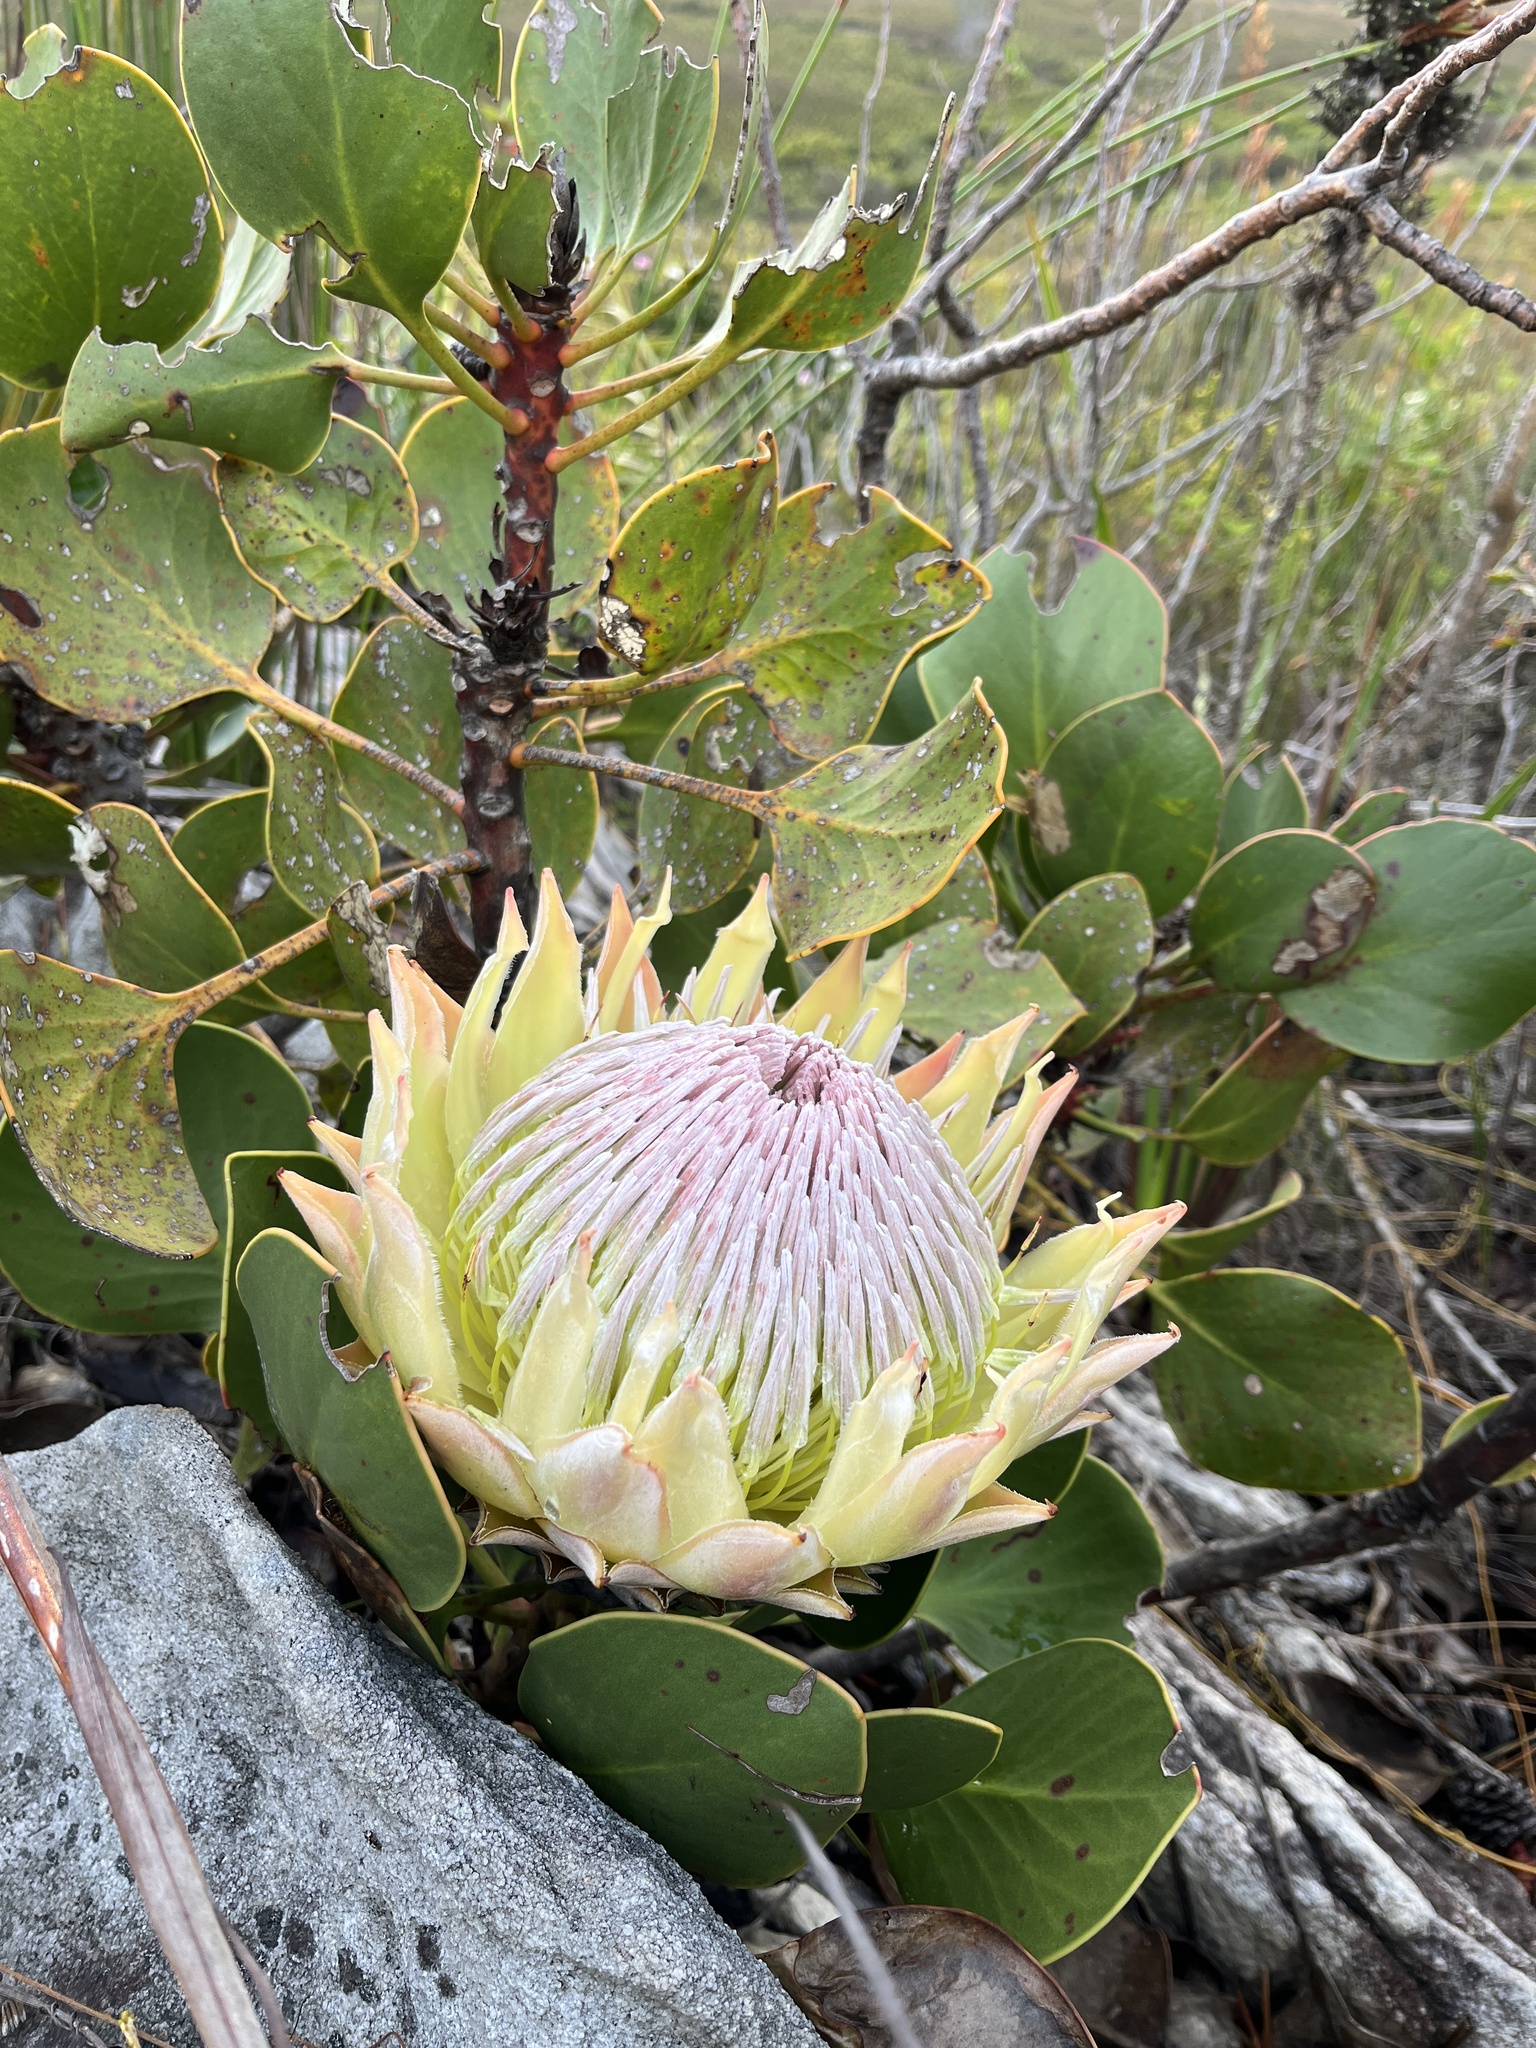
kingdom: Plantae
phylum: Tracheophyta
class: Magnoliopsida
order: Proteales
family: Proteaceae
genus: Protea
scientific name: Protea cynaroides
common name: King protea
